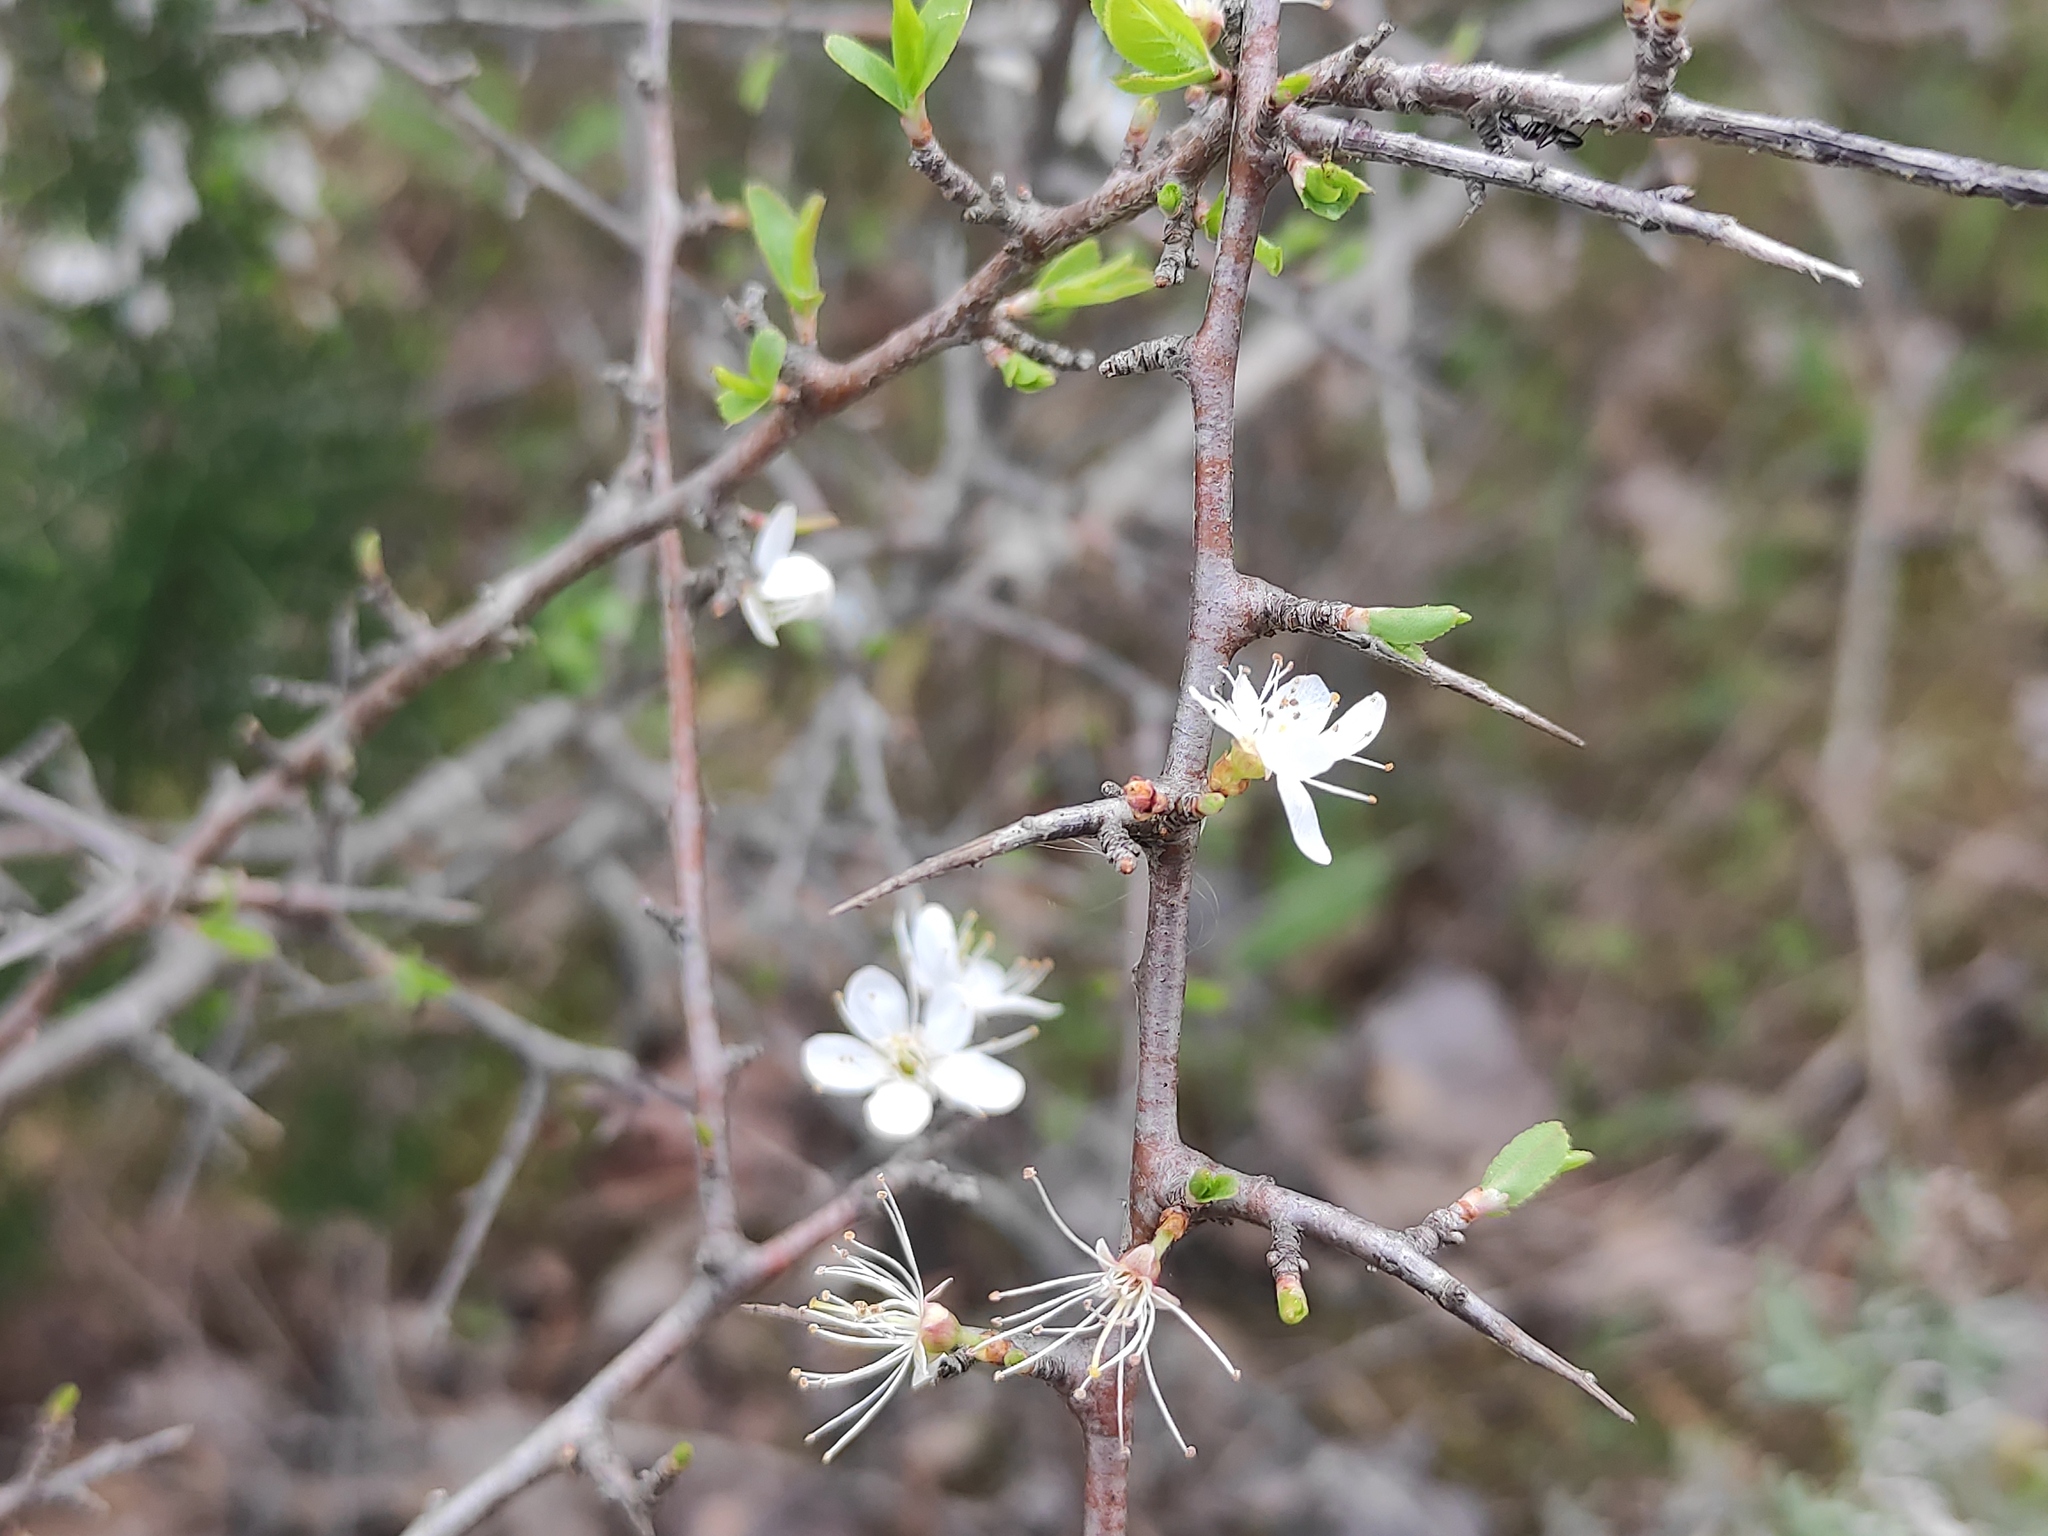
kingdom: Plantae
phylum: Tracheophyta
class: Magnoliopsida
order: Rosales
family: Rosaceae
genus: Prunus
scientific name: Prunus spinosa
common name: Blackthorn
